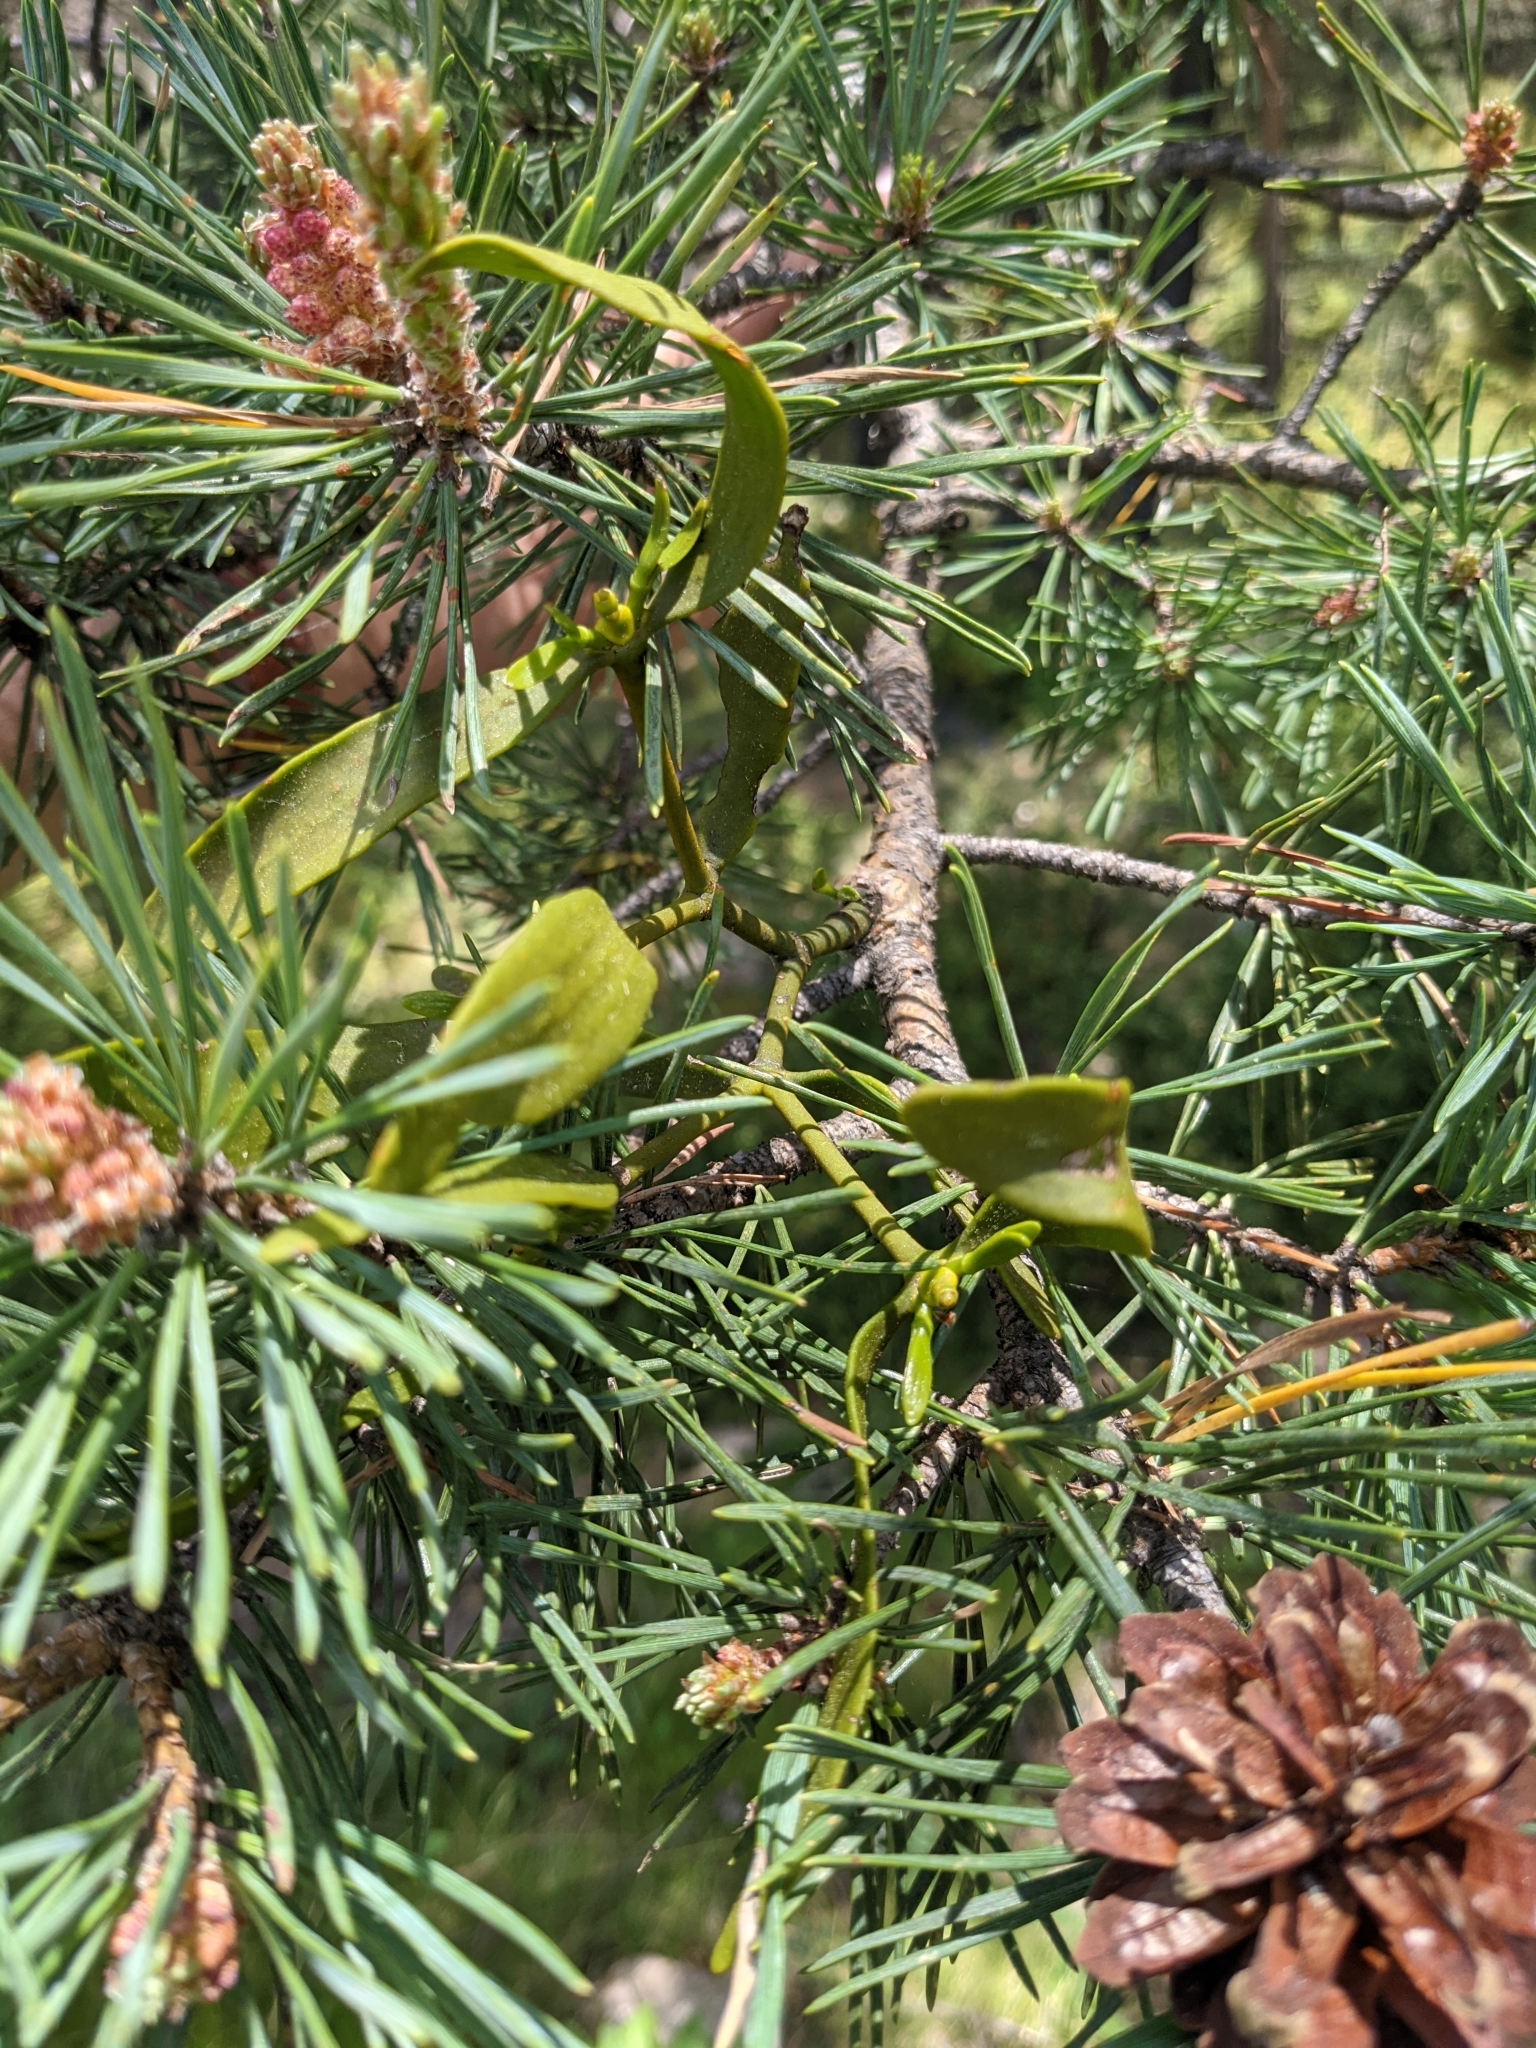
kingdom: Plantae
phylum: Tracheophyta
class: Magnoliopsida
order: Santalales
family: Viscaceae
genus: Viscum
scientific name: Viscum album
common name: Mistletoe
